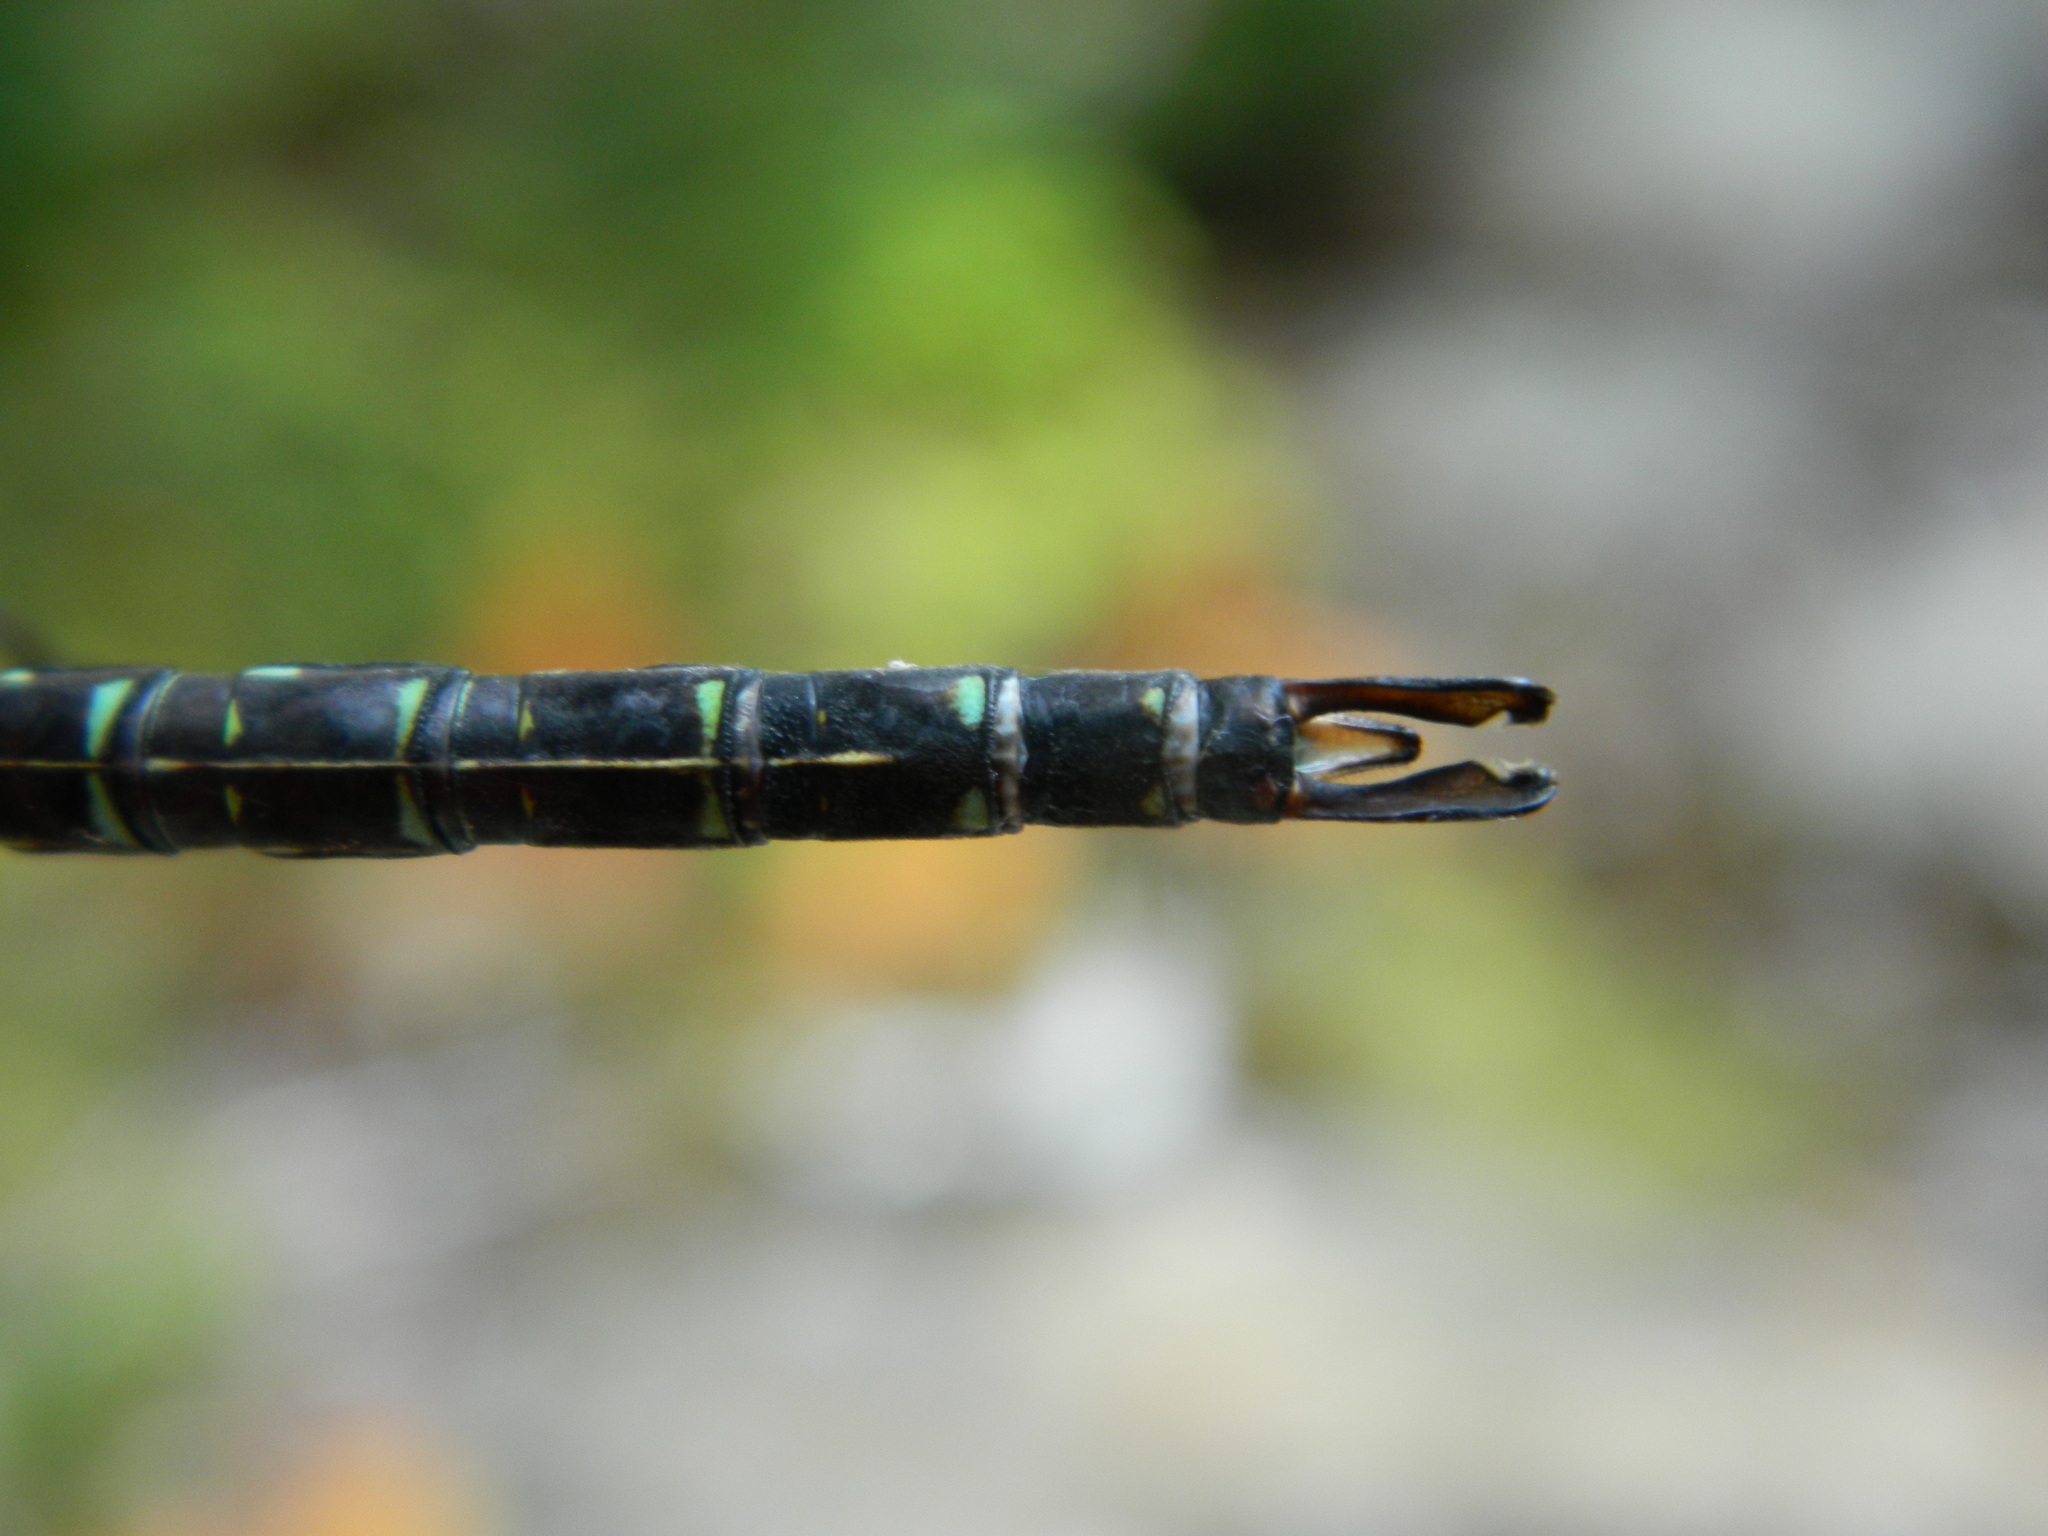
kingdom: Animalia
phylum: Arthropoda
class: Insecta
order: Odonata
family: Aeshnidae
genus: Aeshna
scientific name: Aeshna umbrosa
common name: Shadow darner
